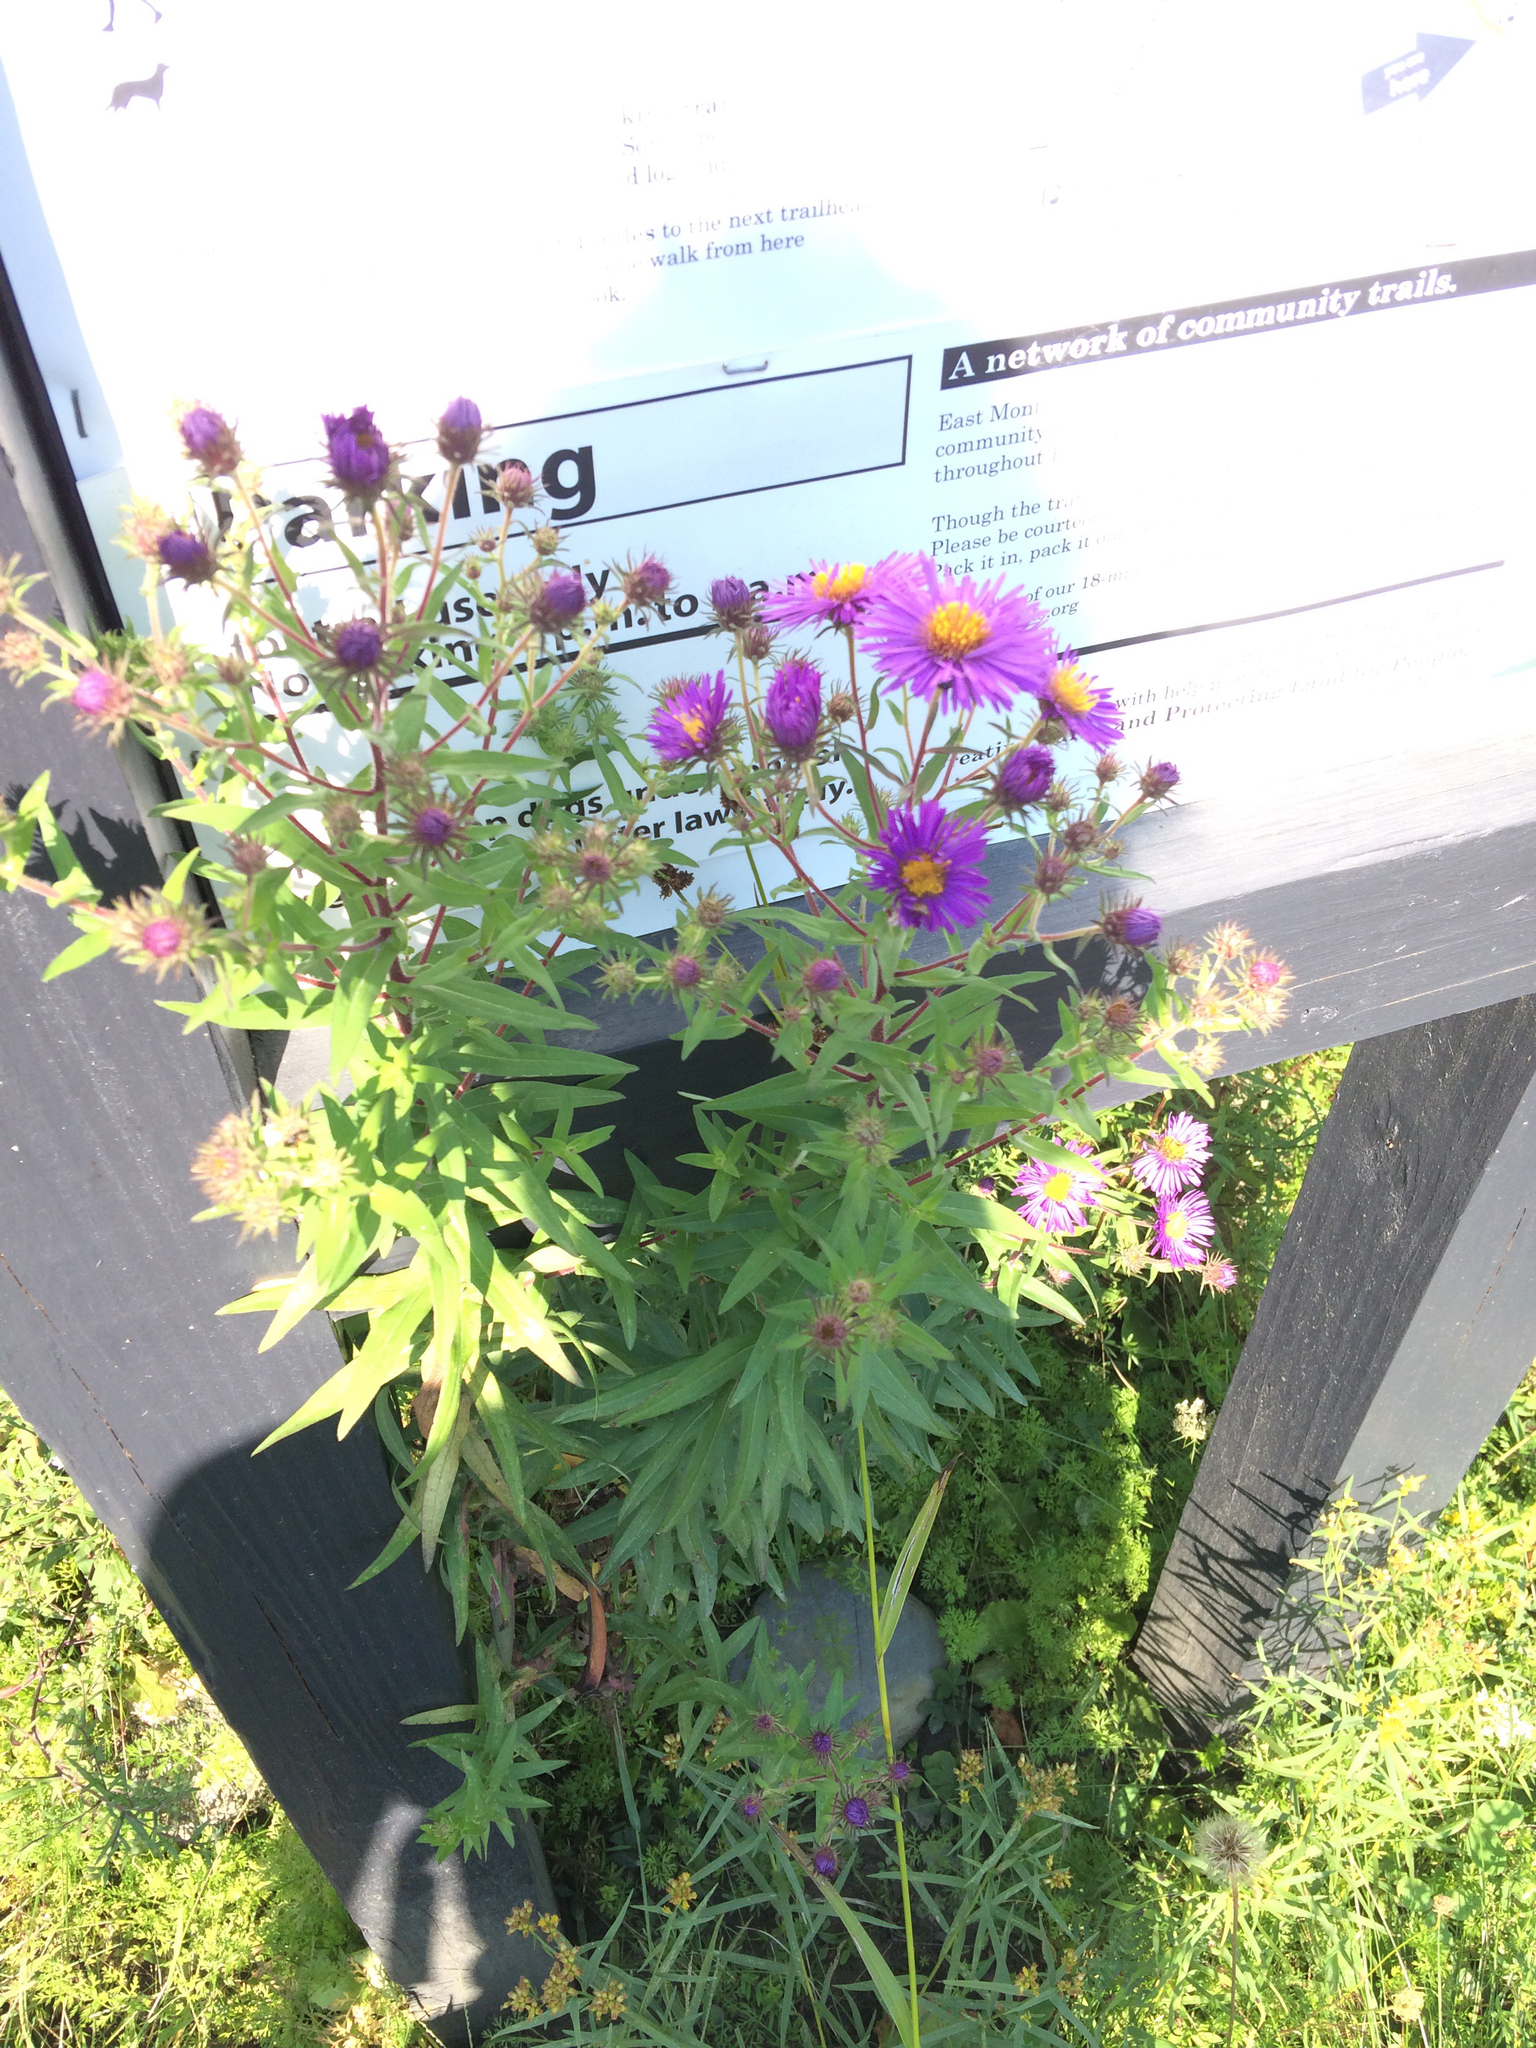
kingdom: Plantae
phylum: Tracheophyta
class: Magnoliopsida
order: Asterales
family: Asteraceae
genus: Symphyotrichum
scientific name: Symphyotrichum novae-angliae
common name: Michaelmas daisy
